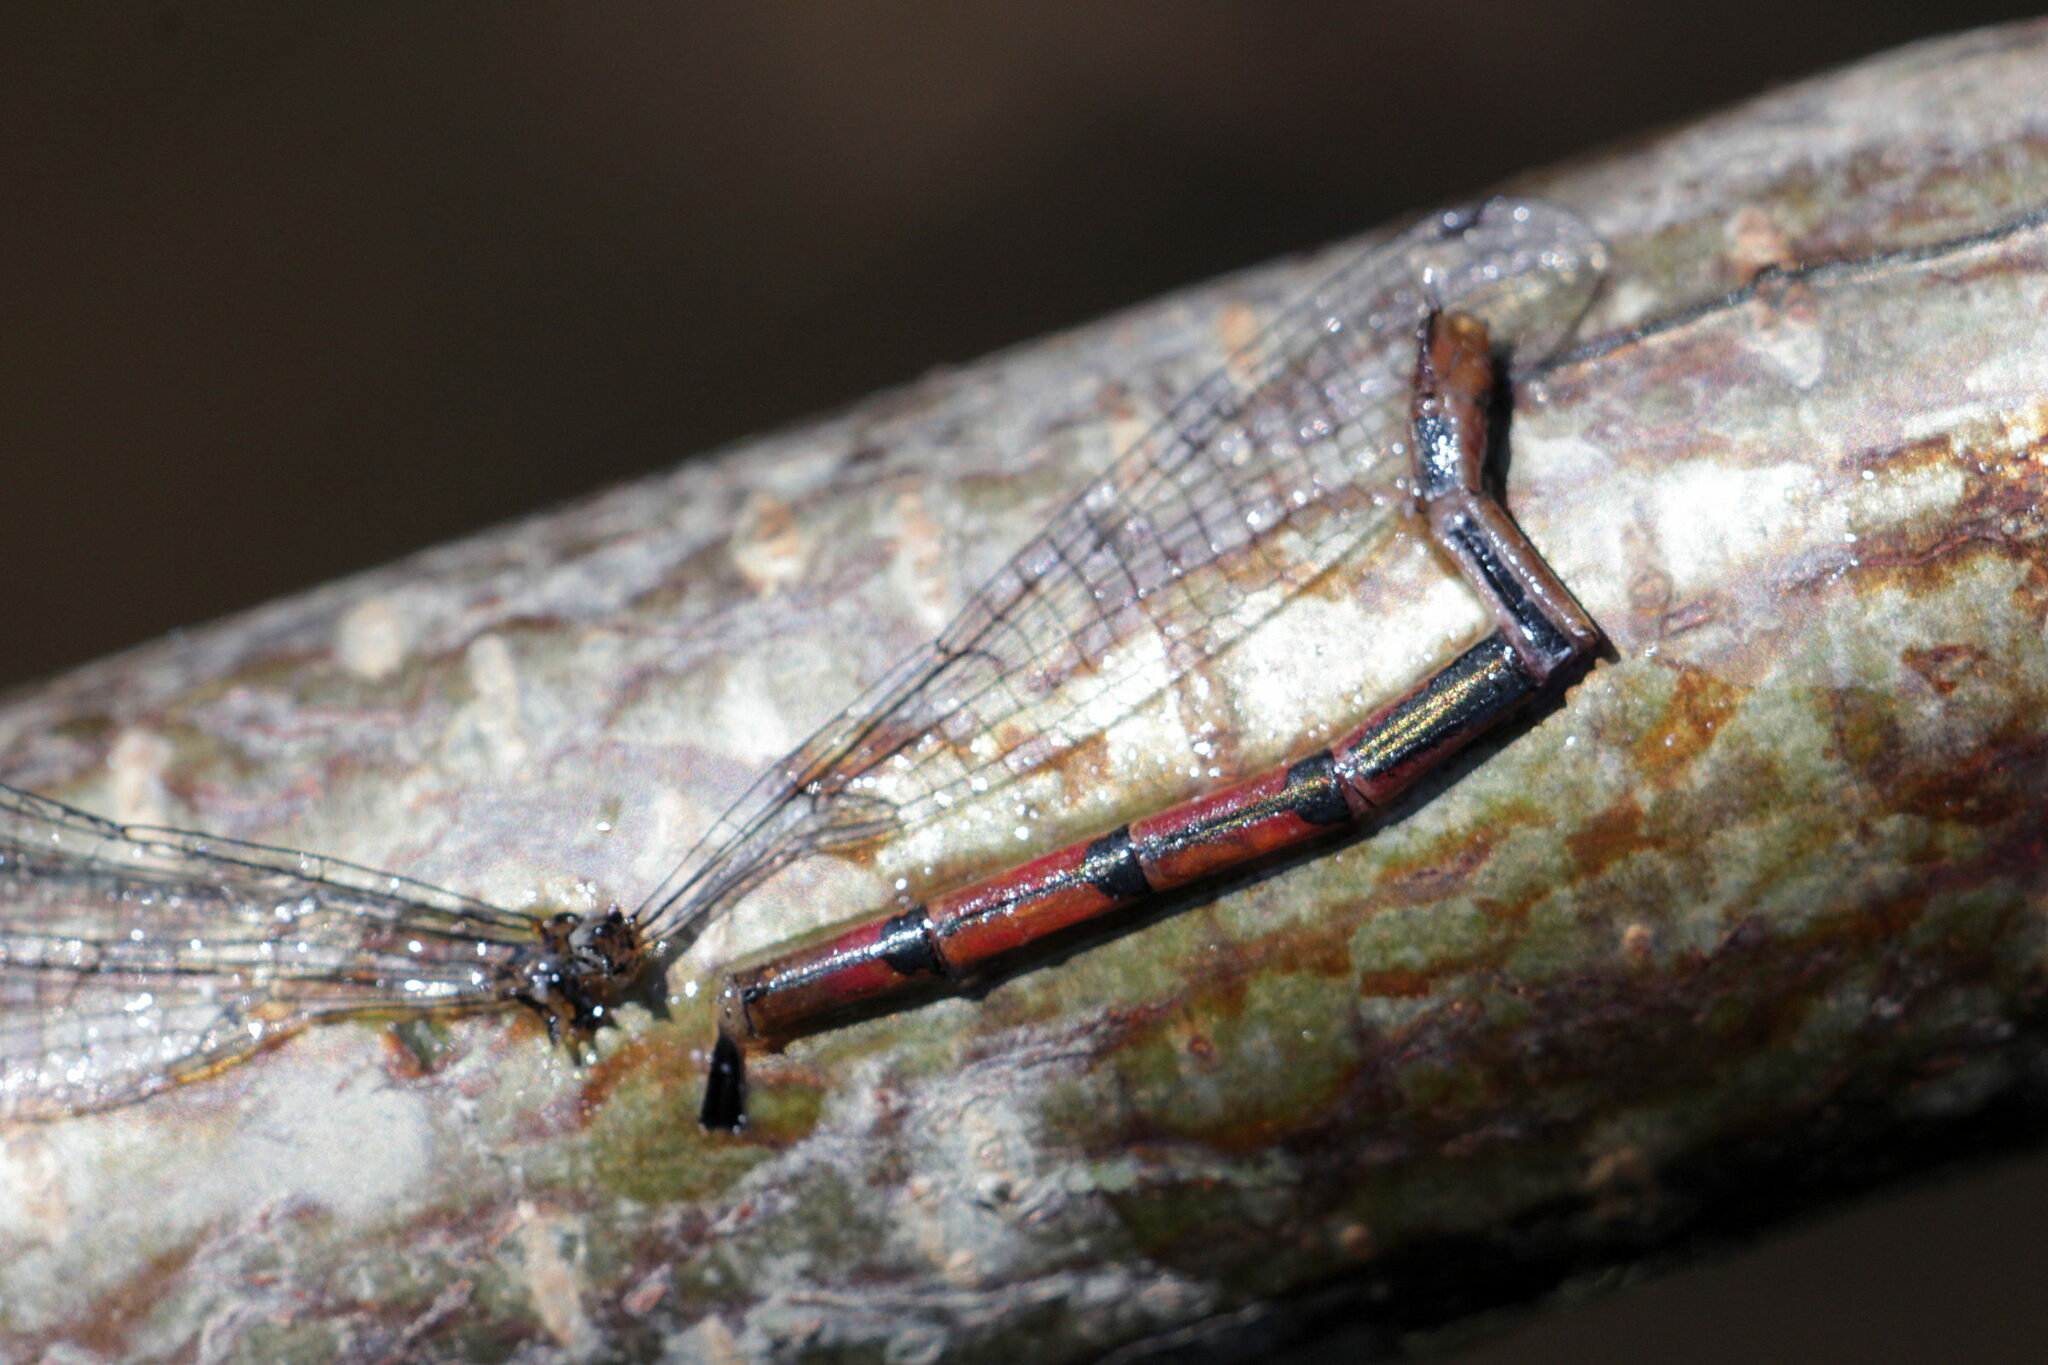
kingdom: Animalia
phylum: Arthropoda
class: Insecta
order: Odonata
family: Coenagrionidae
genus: Pyrrhosoma
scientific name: Pyrrhosoma nymphula
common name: Large red damsel
